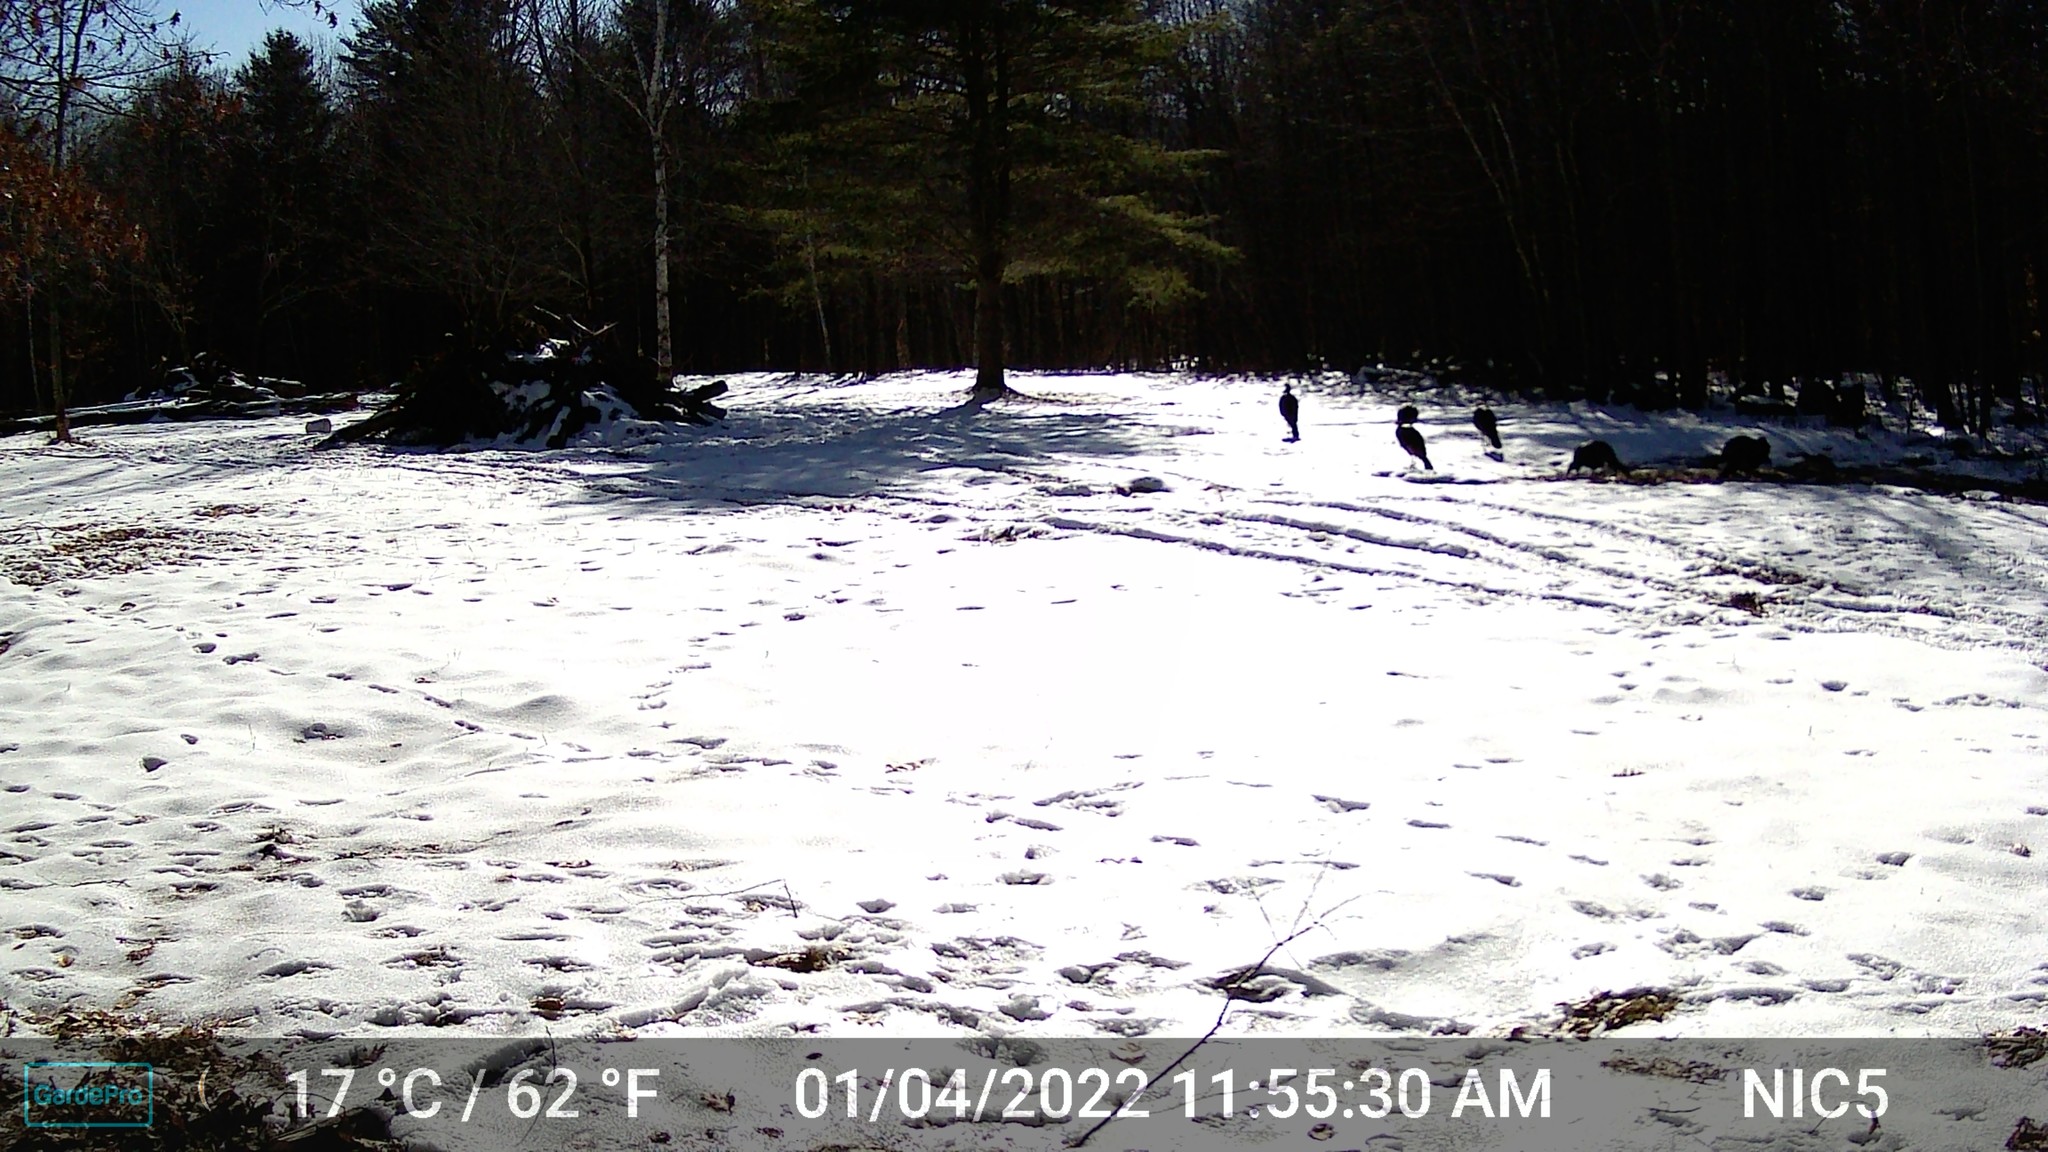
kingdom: Animalia
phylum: Chordata
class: Aves
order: Galliformes
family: Phasianidae
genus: Meleagris
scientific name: Meleagris gallopavo
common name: Wild turkey
